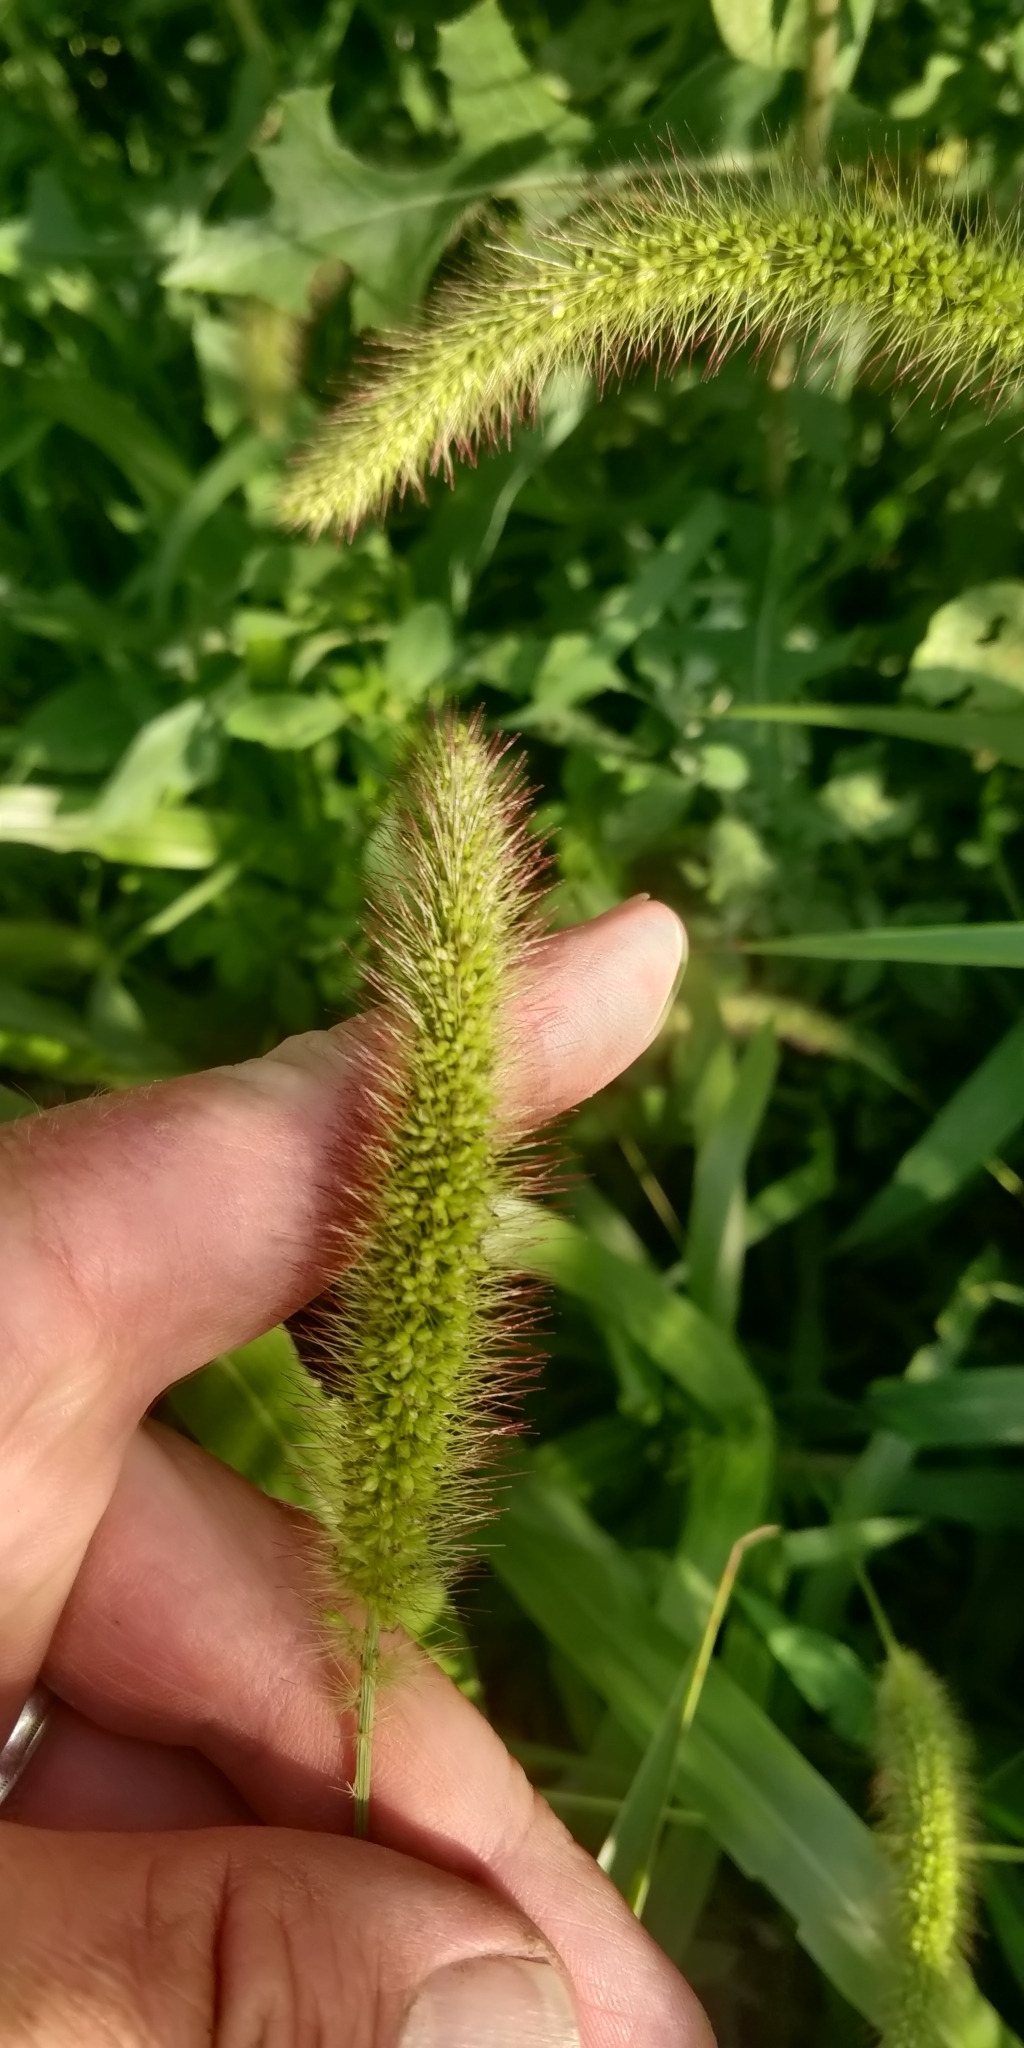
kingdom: Plantae
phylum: Tracheophyta
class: Liliopsida
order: Poales
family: Poaceae
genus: Setaria
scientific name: Setaria viridis
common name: Green bristlegrass
